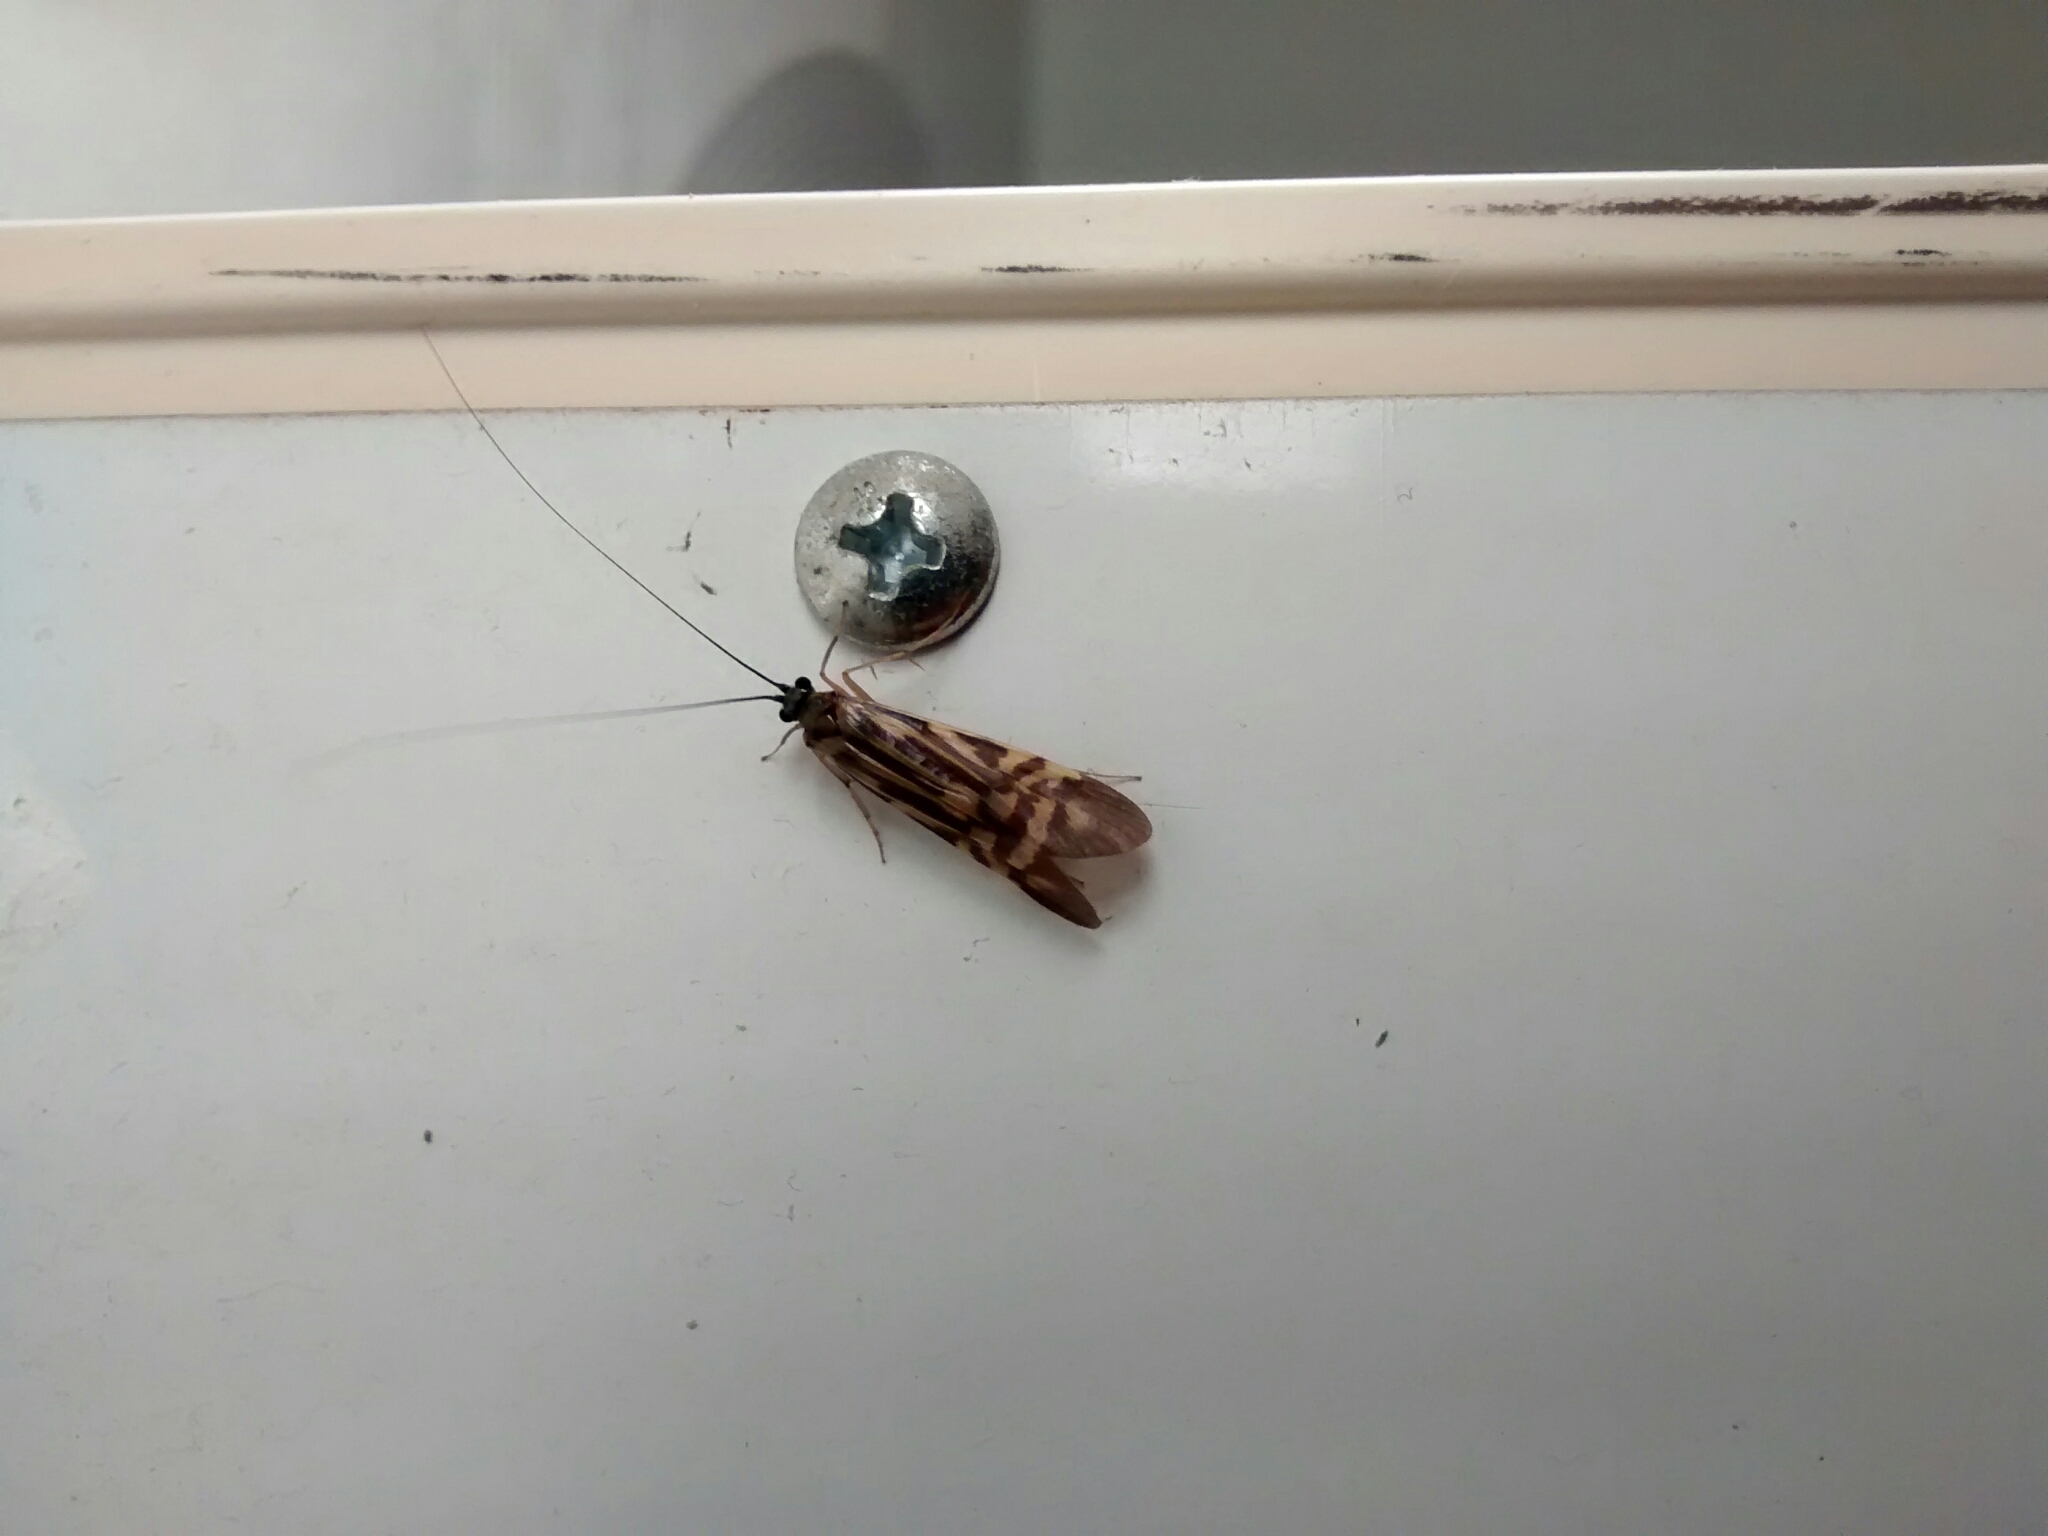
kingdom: Animalia
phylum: Arthropoda
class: Insecta
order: Trichoptera
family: Hydropsychidae
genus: Macrostemum
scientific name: Macrostemum zebratum
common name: Zebra caddisfly
